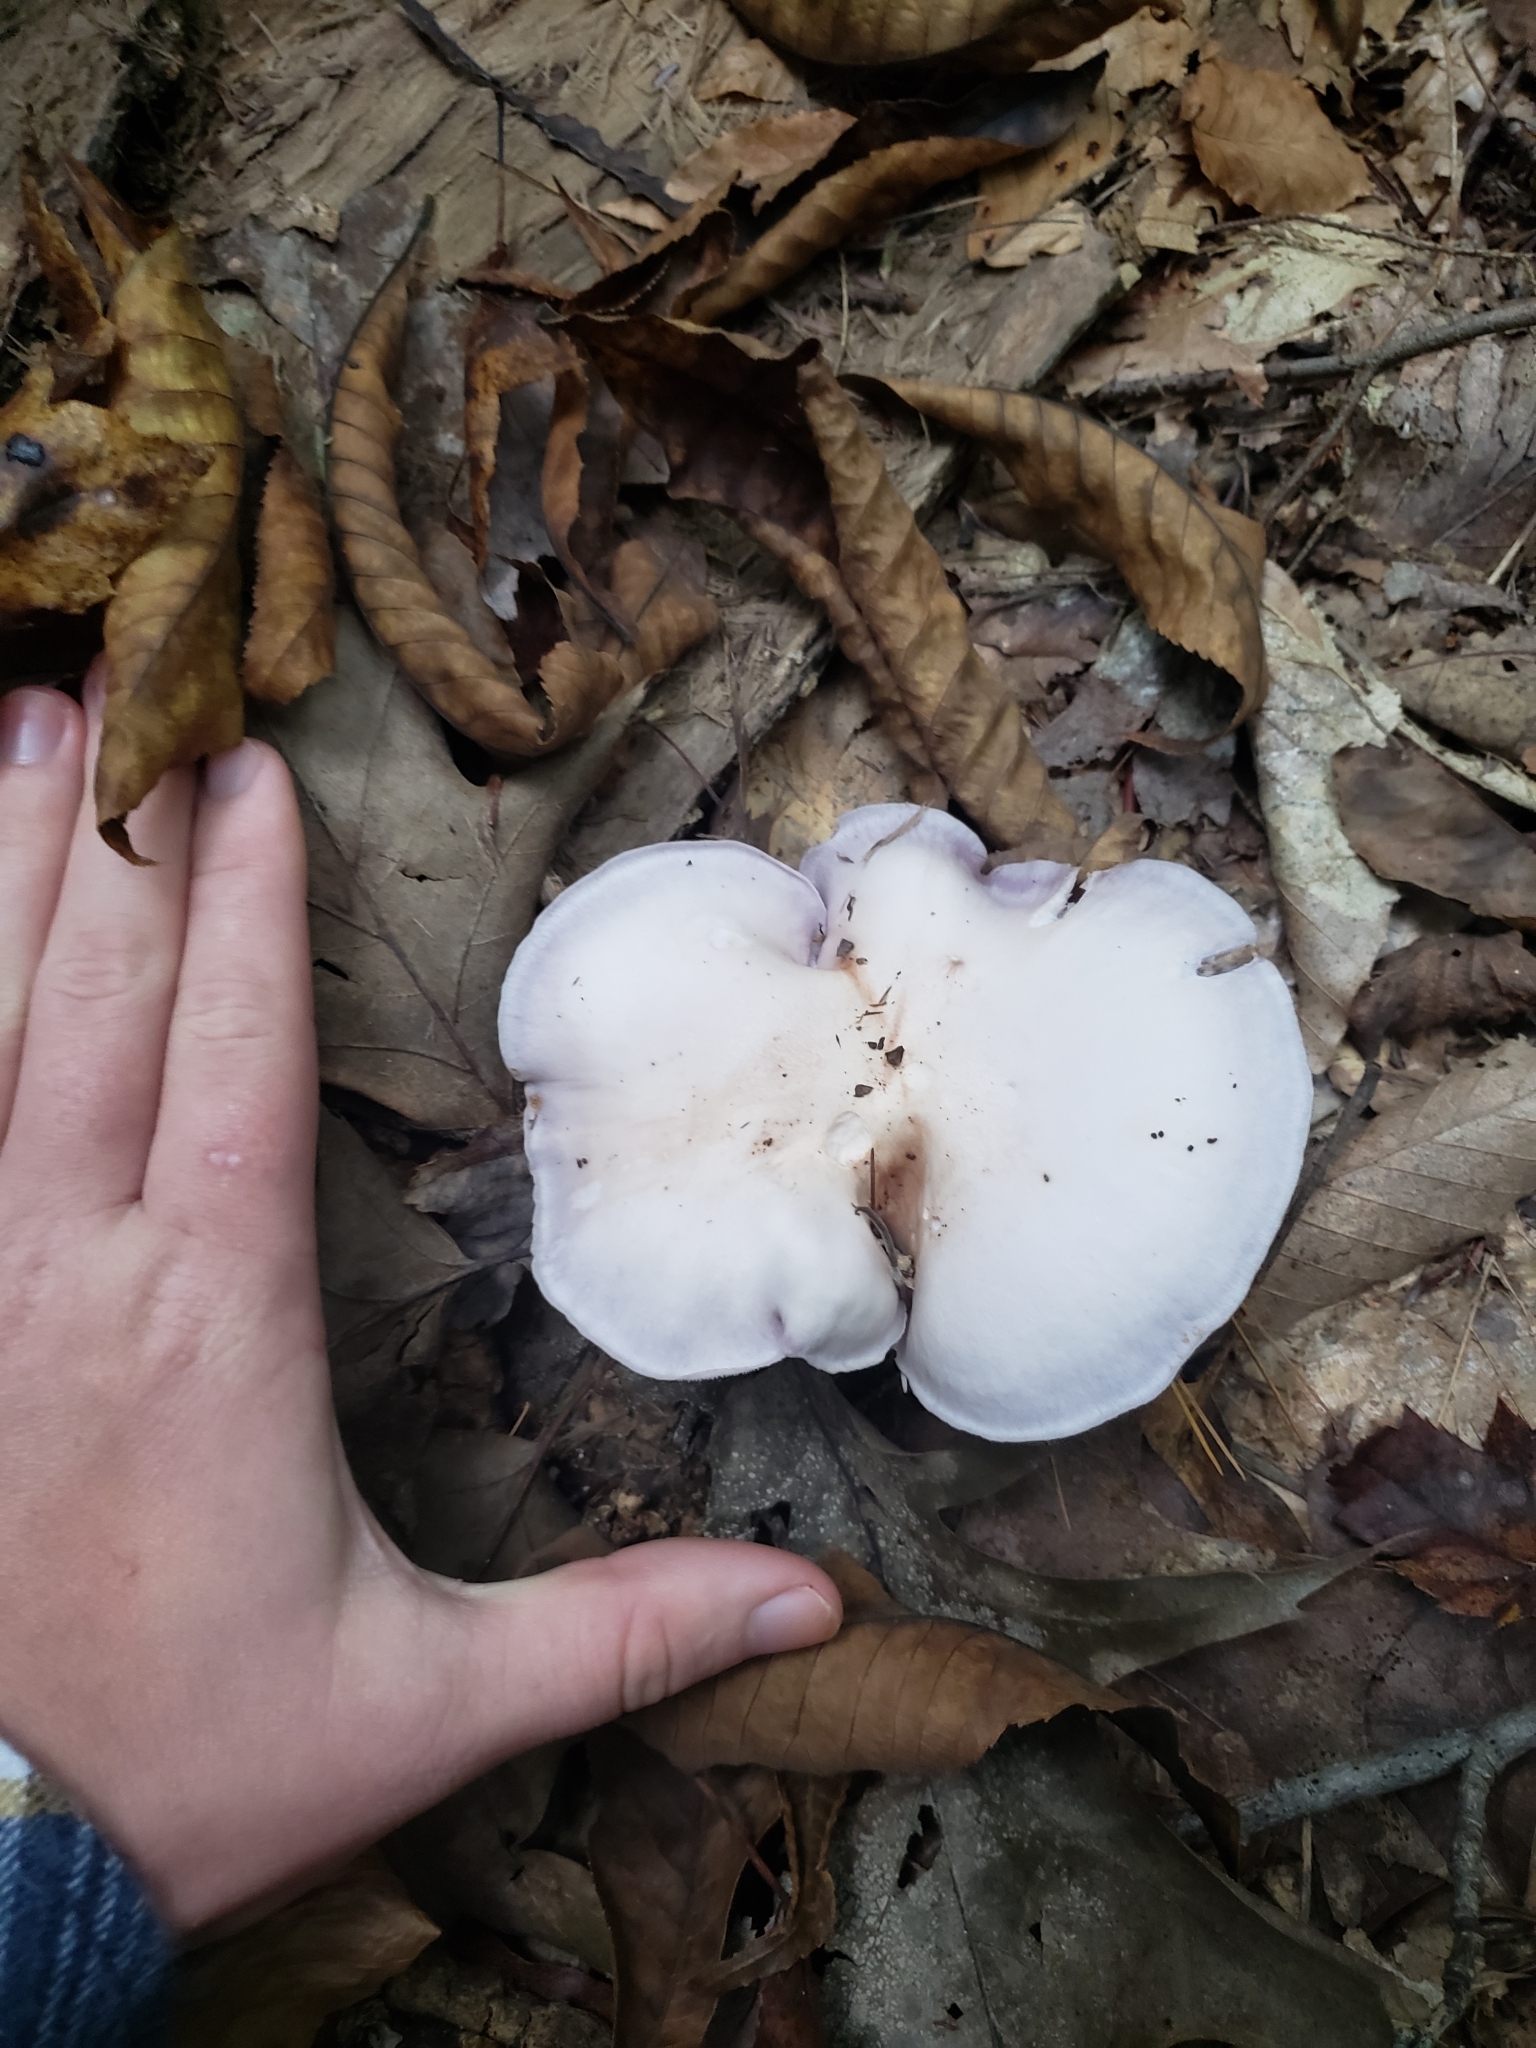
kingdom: Fungi
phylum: Basidiomycota
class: Agaricomycetes
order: Agaricales
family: Tricholomataceae
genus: Collybia
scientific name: Collybia
